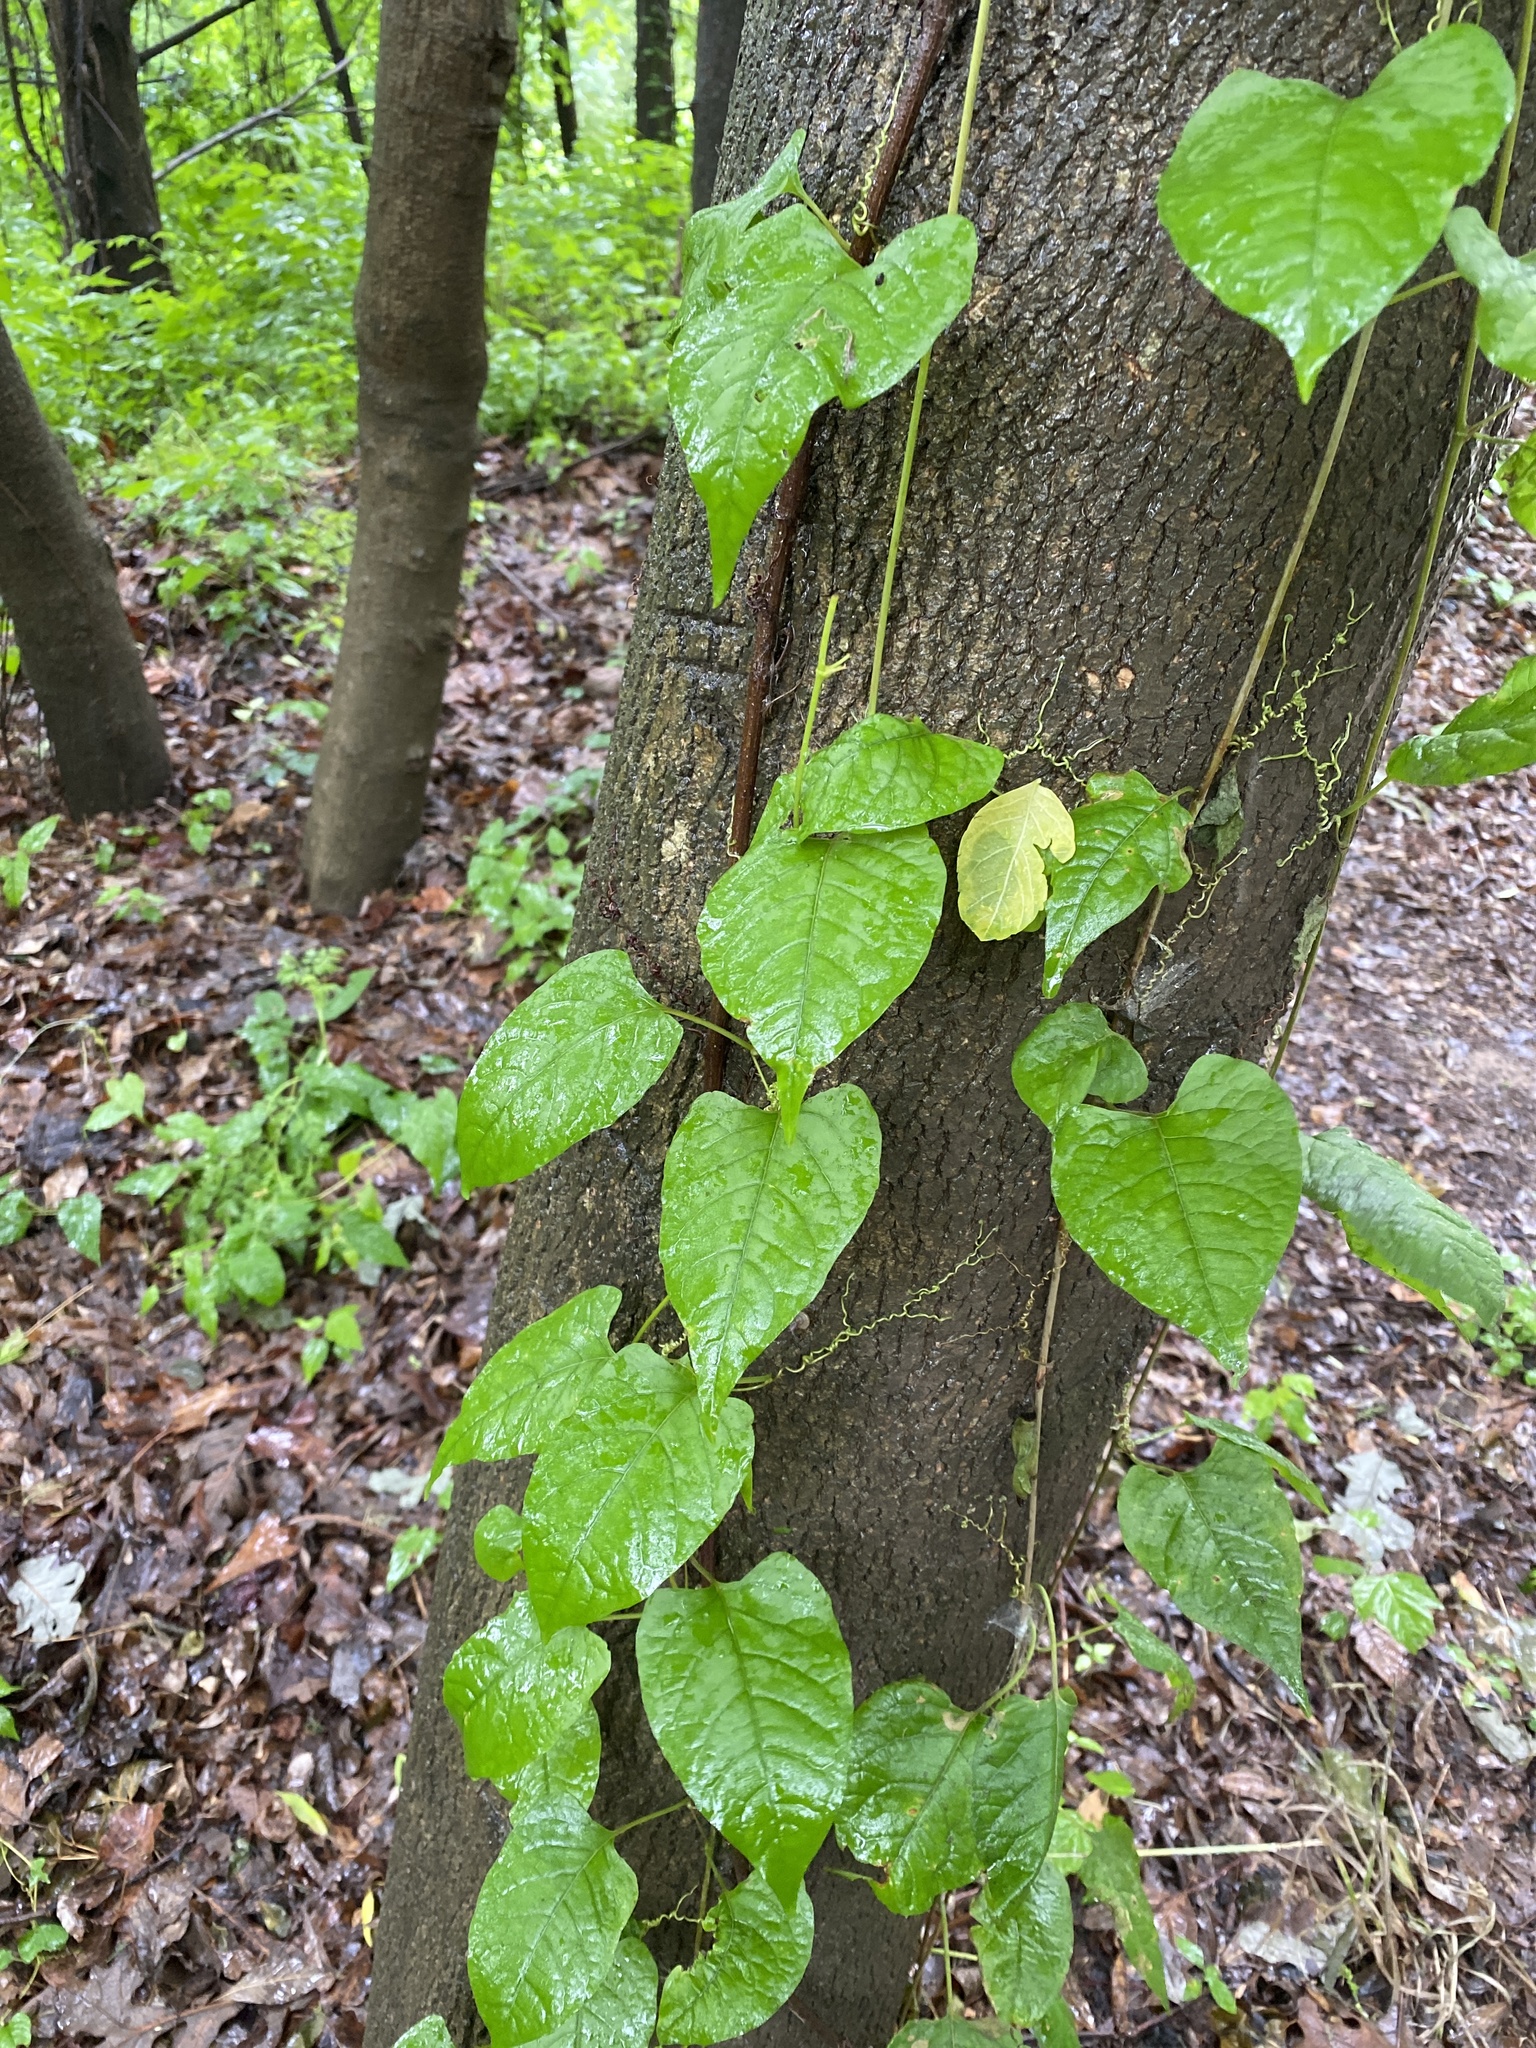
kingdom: Plantae
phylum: Tracheophyta
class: Magnoliopsida
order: Caryophyllales
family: Polygonaceae
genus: Brunnichia
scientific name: Brunnichia ovata
